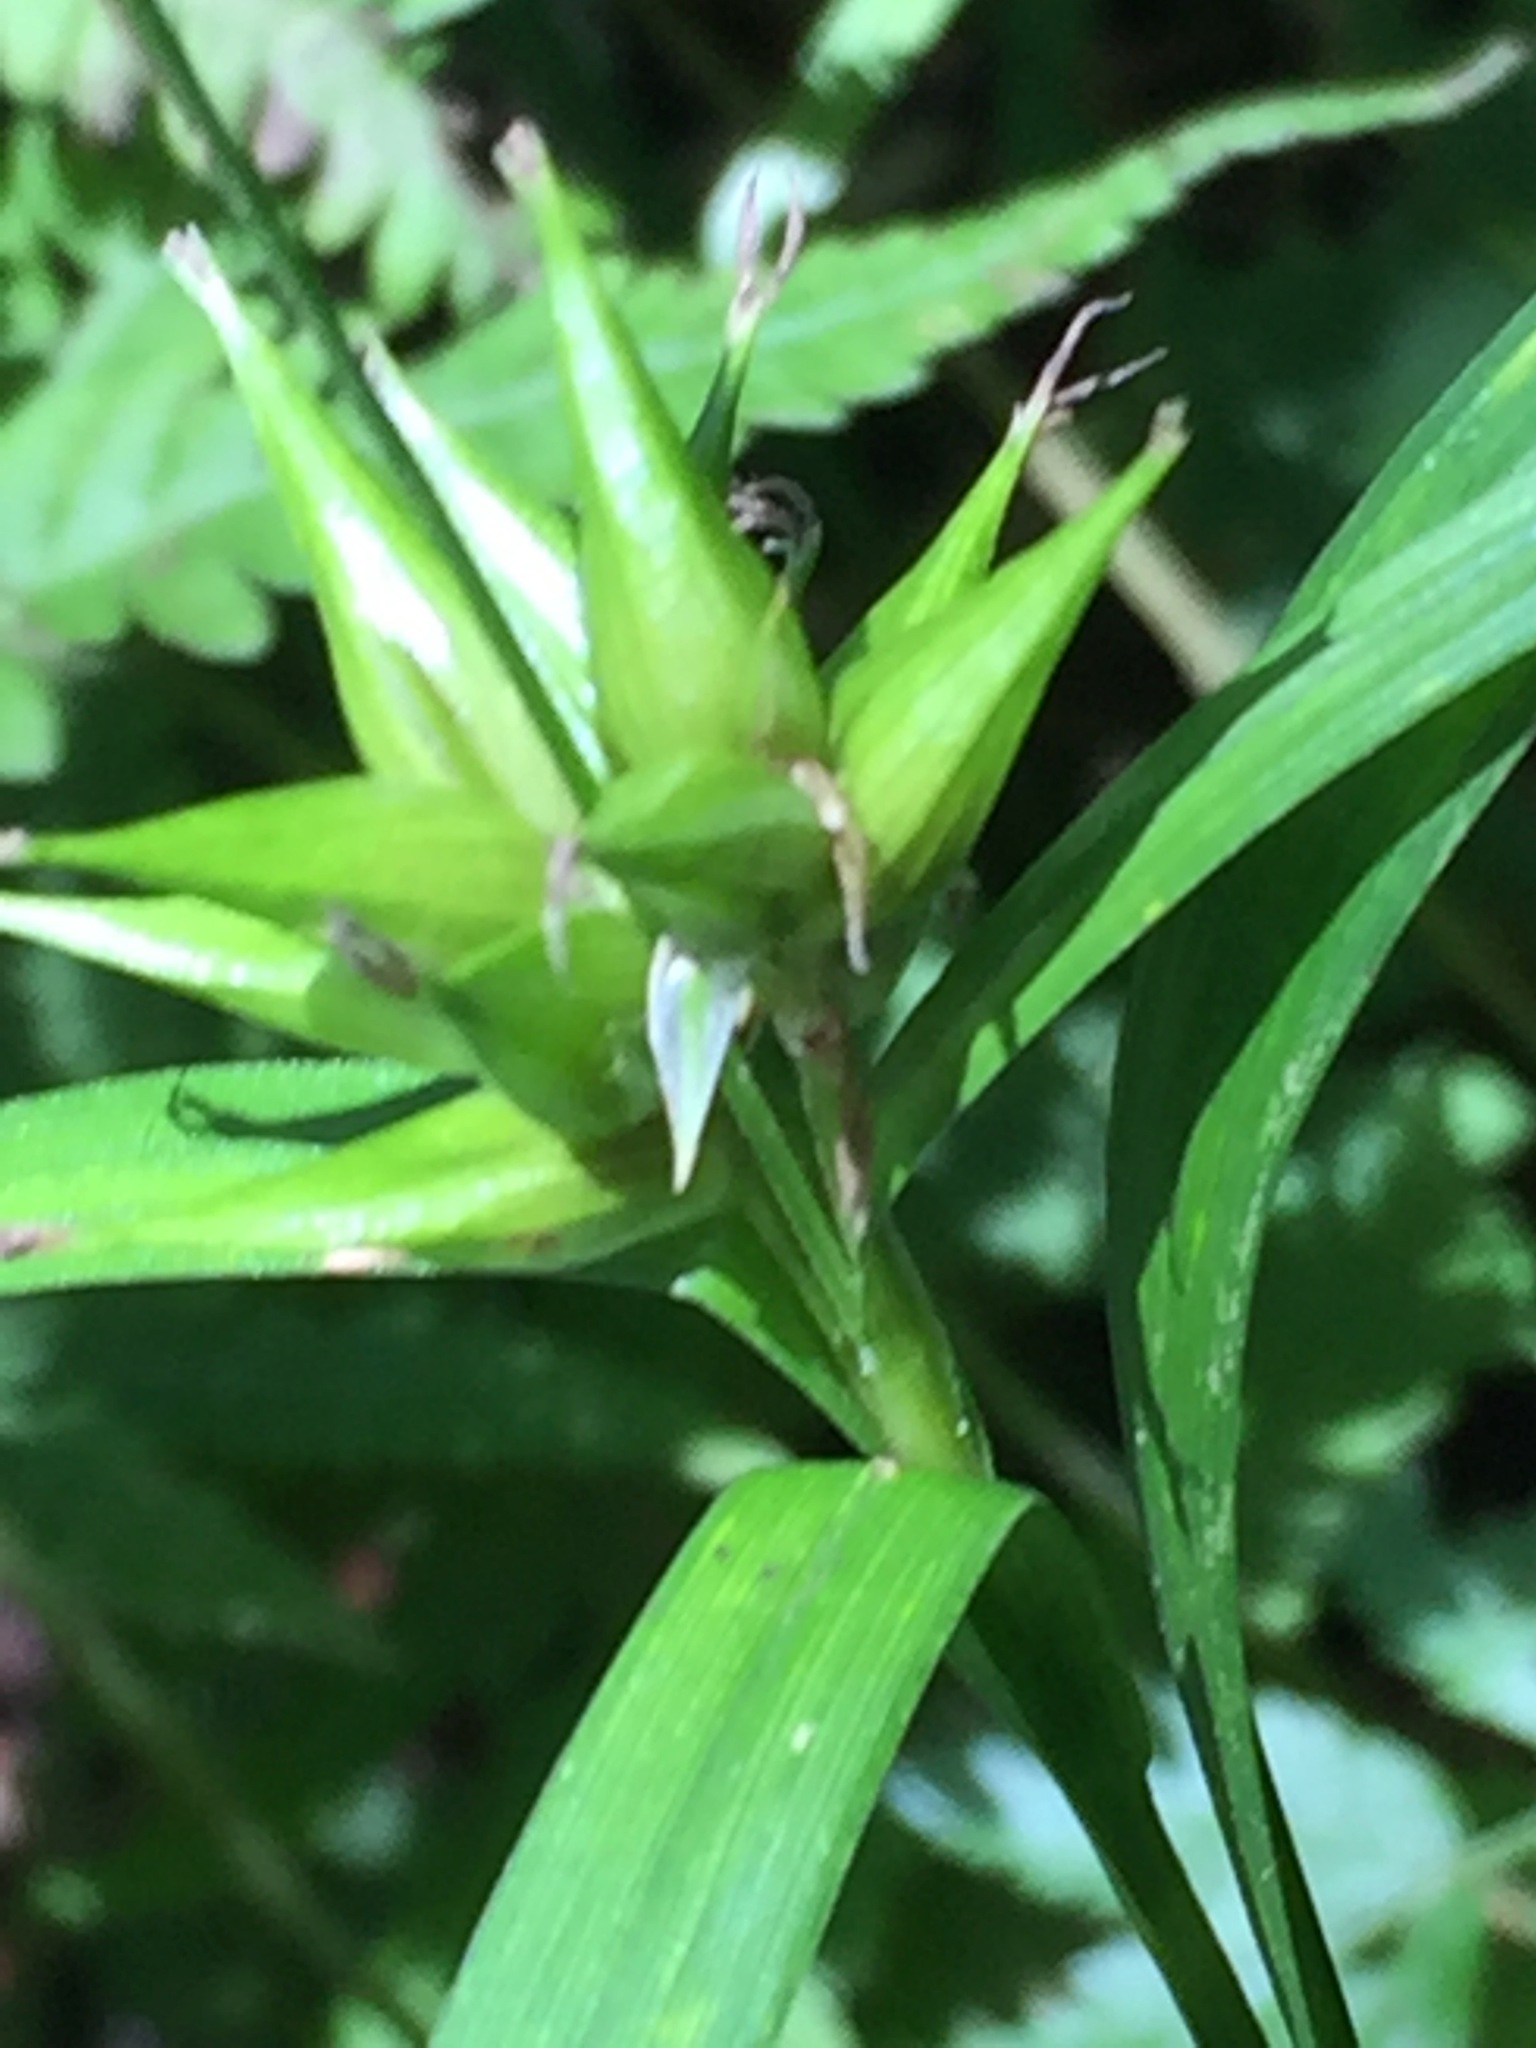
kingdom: Plantae
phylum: Tracheophyta
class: Liliopsida
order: Poales
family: Cyperaceae
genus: Carex
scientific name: Carex intumescens
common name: Greater bladder sedge
